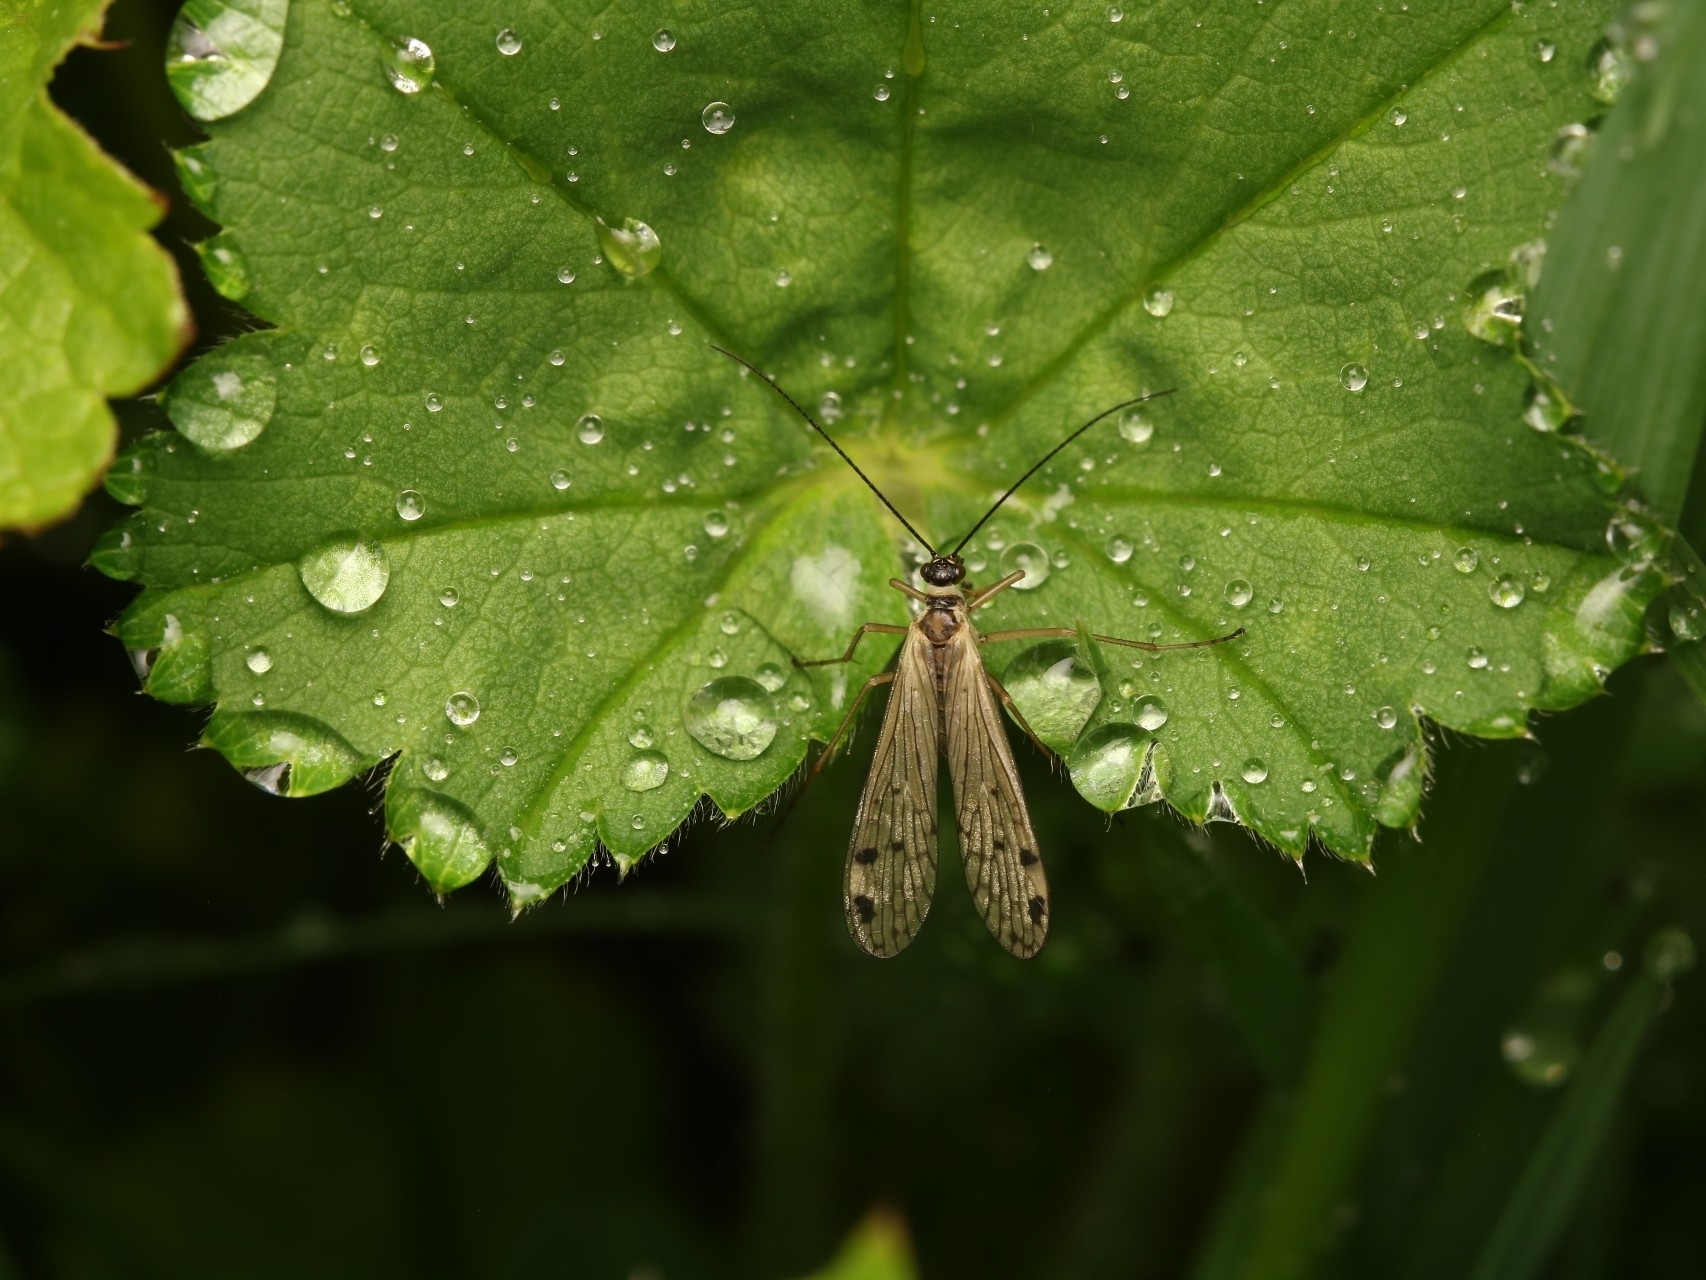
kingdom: Animalia
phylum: Arthropoda
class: Insecta
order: Mecoptera
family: Panorpidae
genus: Panorpa
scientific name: Panorpa alpina
